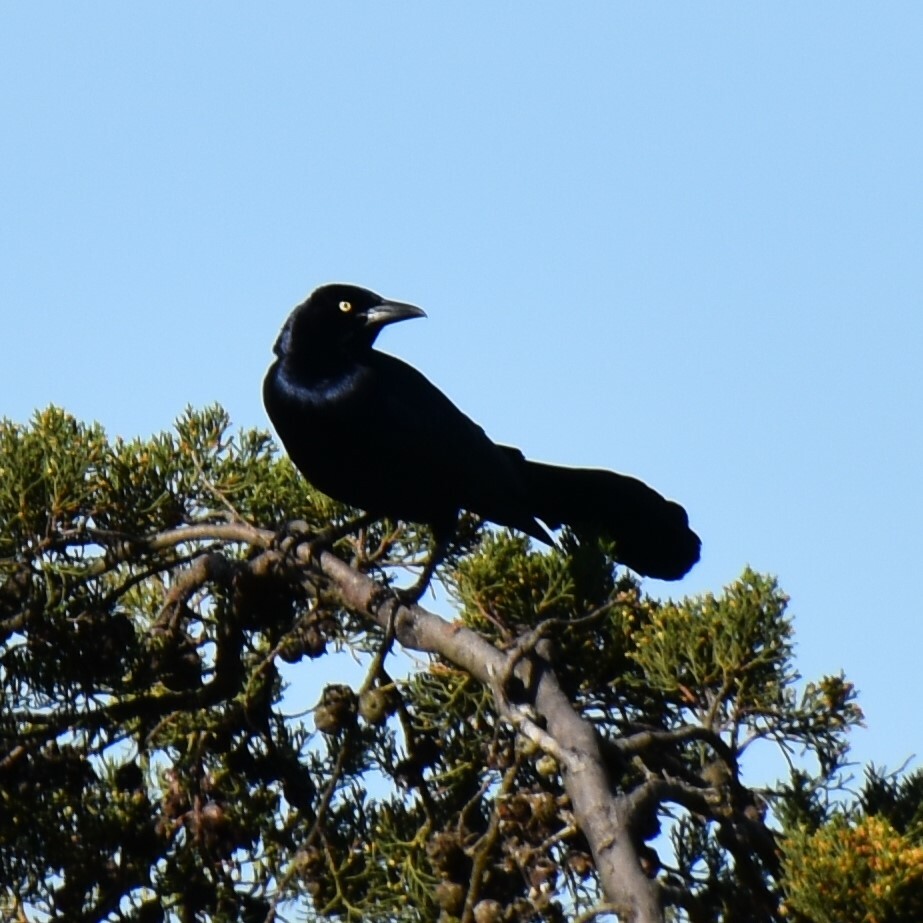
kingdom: Animalia
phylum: Chordata
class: Aves
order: Passeriformes
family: Icteridae
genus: Quiscalus
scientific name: Quiscalus mexicanus
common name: Great-tailed grackle
